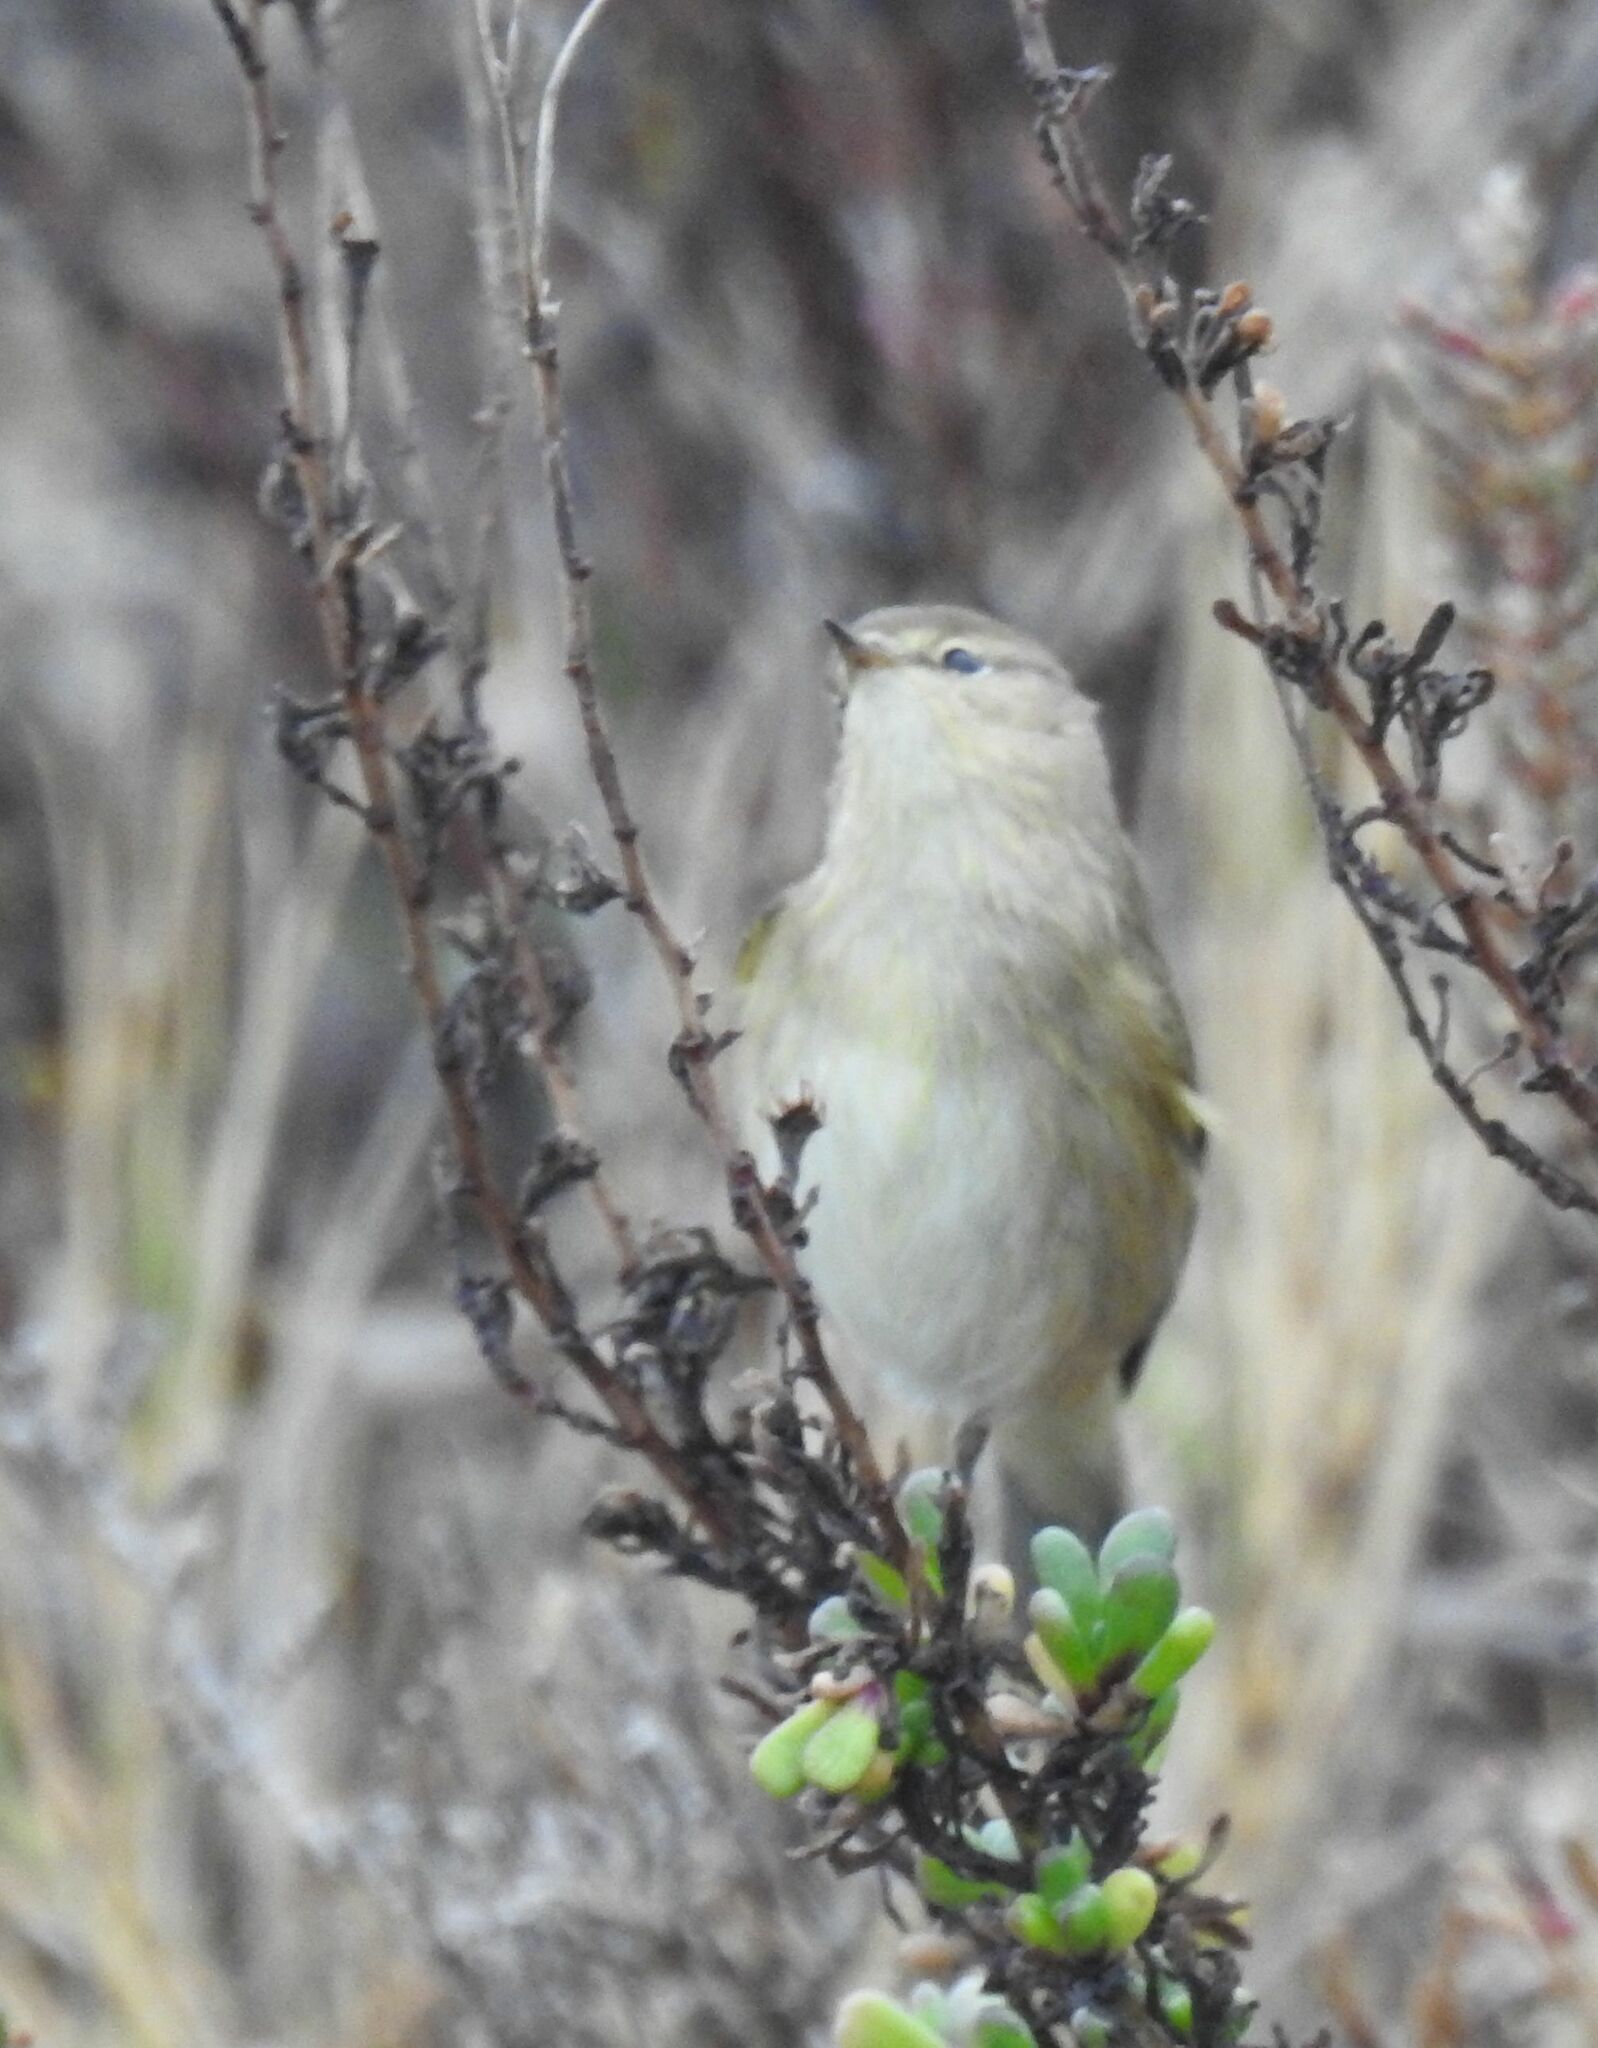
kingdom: Animalia
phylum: Chordata
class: Aves
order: Passeriformes
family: Phylloscopidae
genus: Phylloscopus
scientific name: Phylloscopus collybita
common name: Common chiffchaff
